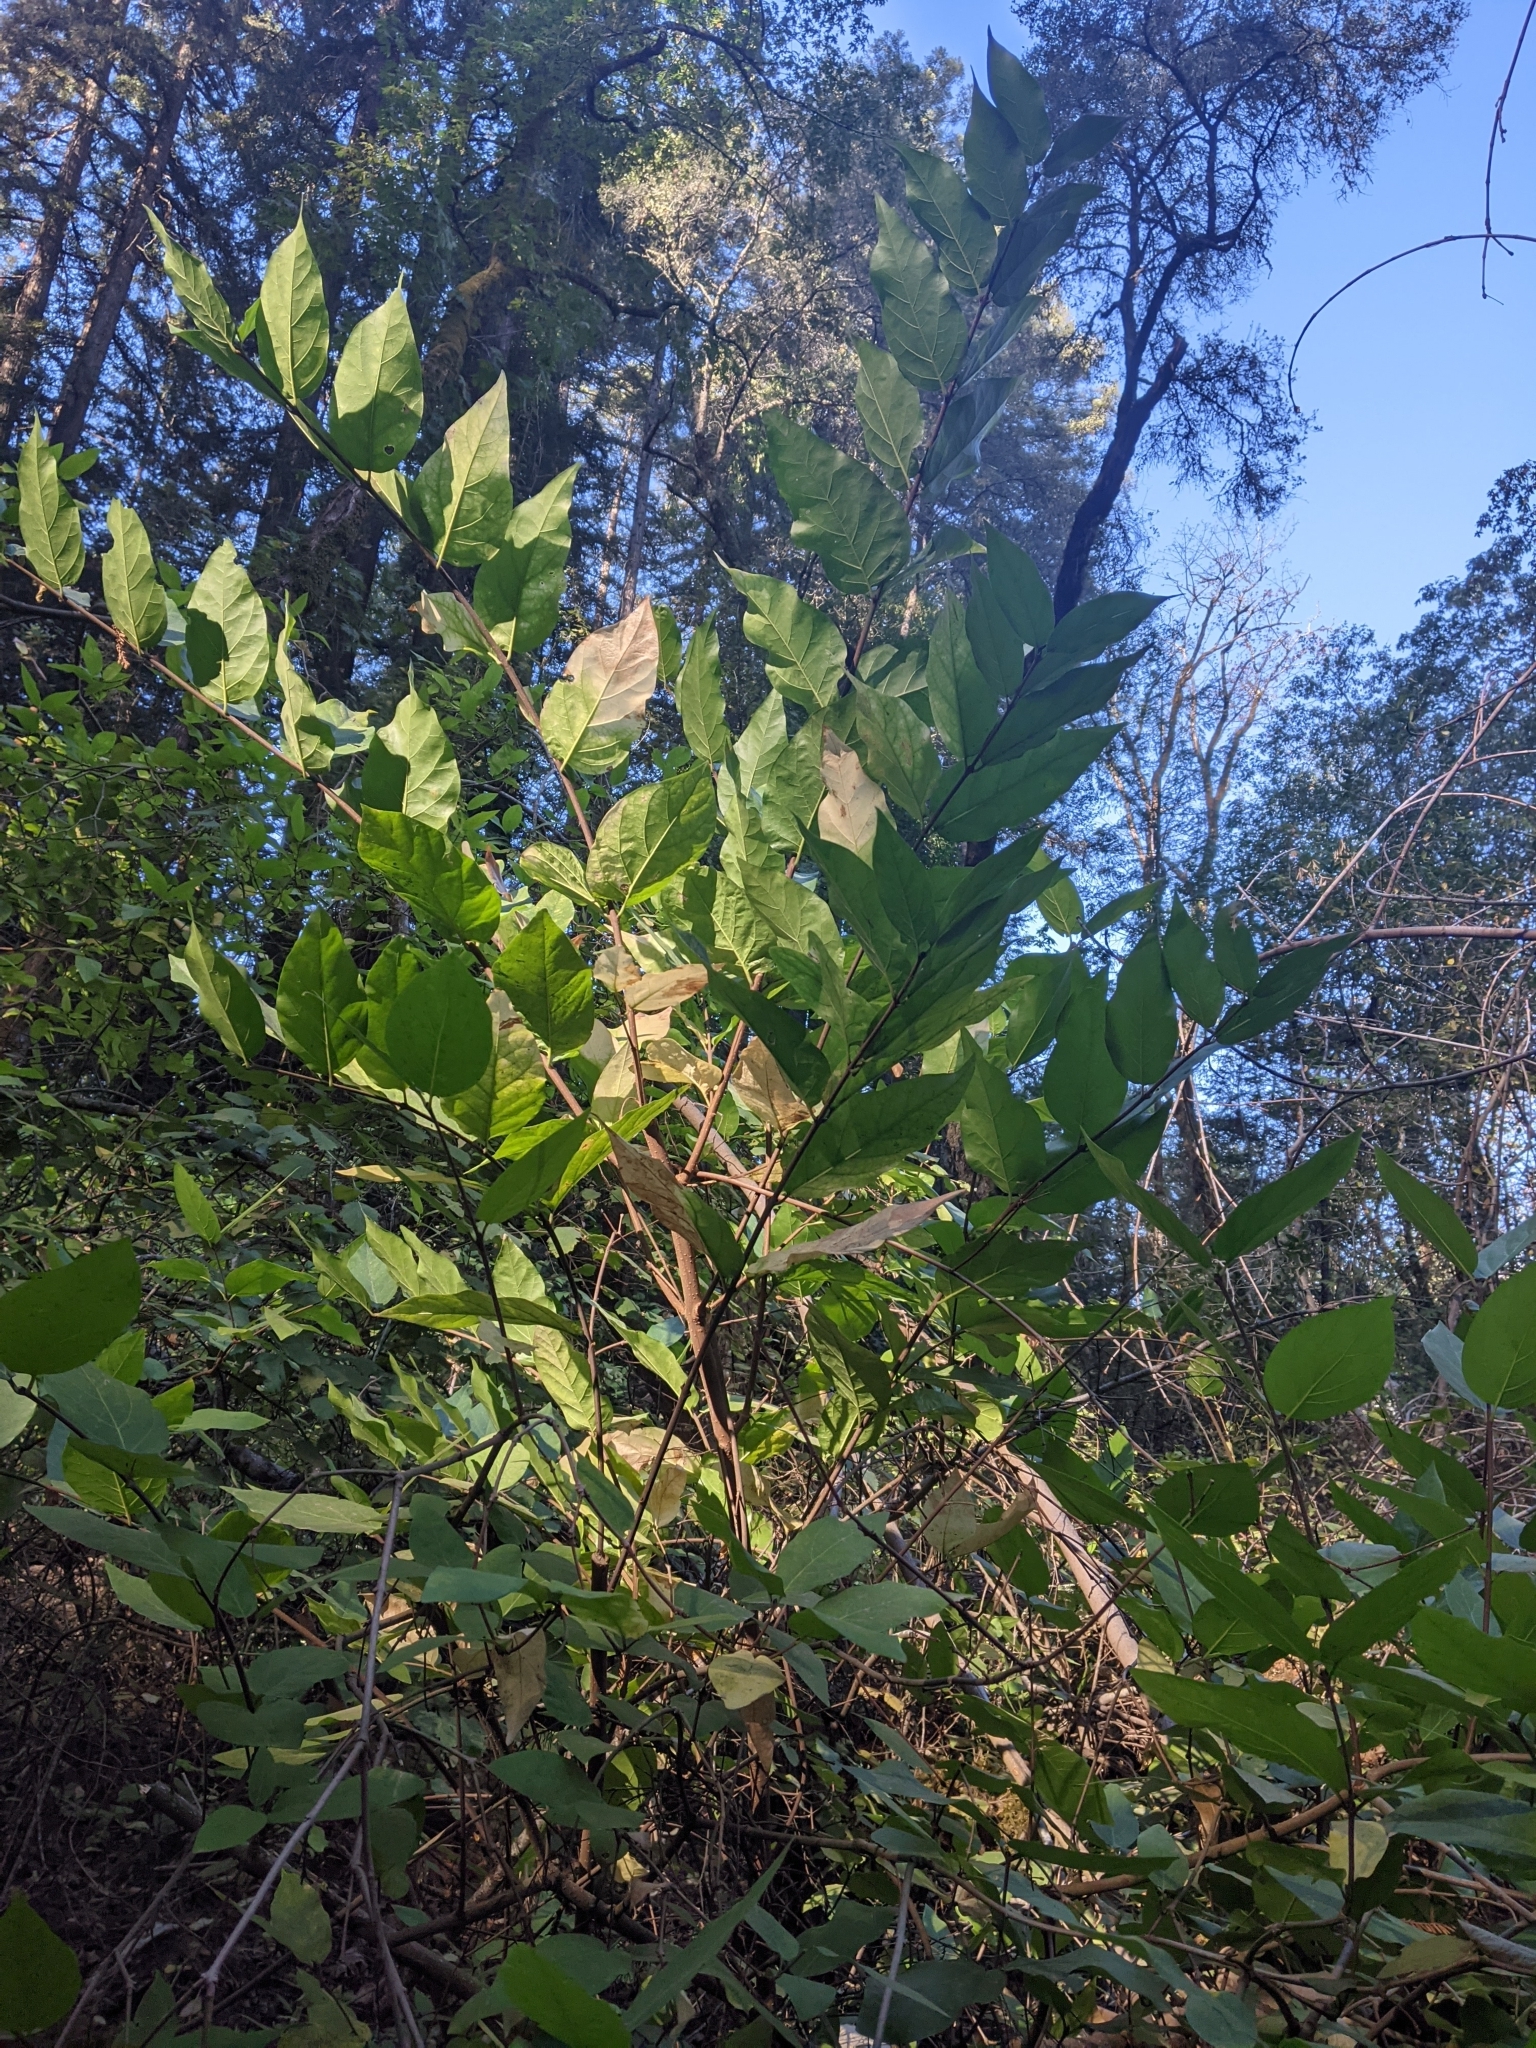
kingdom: Plantae
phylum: Tracheophyta
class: Magnoliopsida
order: Laurales
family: Calycanthaceae
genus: Calycanthus
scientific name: Calycanthus occidentalis
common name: California spicebush
